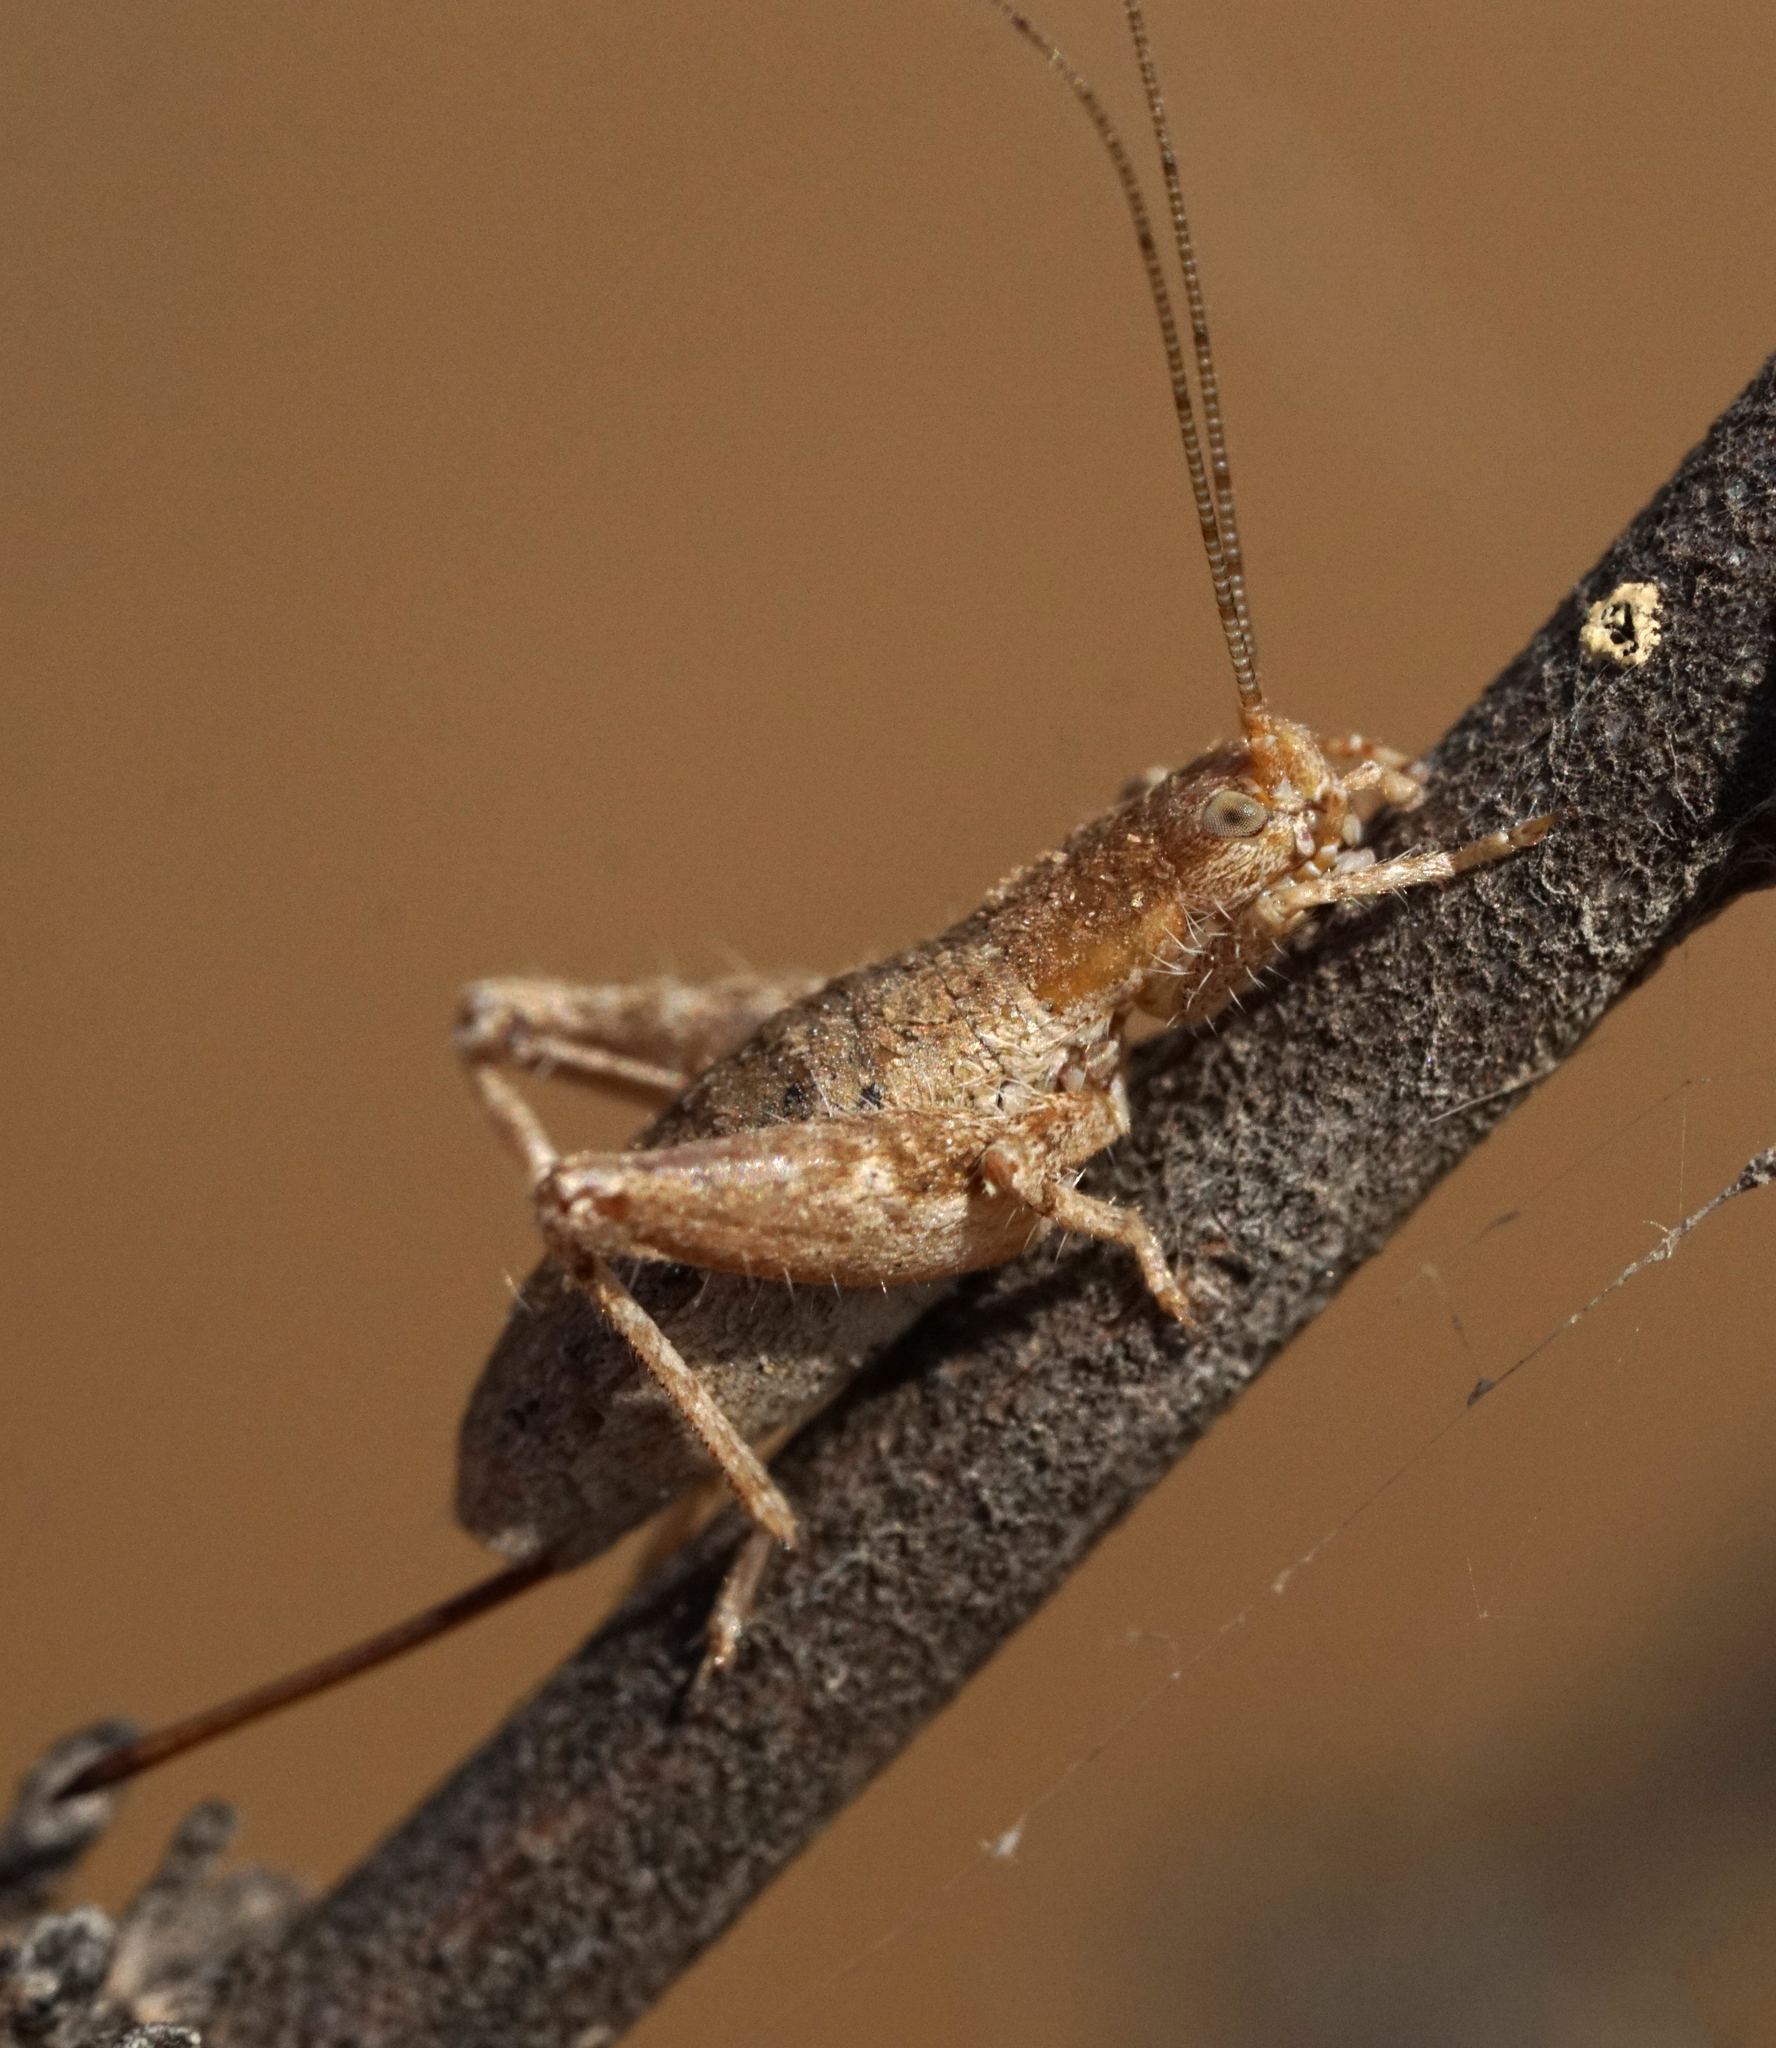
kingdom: Animalia
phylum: Arthropoda
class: Insecta
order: Orthoptera
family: Mogoplistidae
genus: Arachnocephalus
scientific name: Arachnocephalus vestitus
